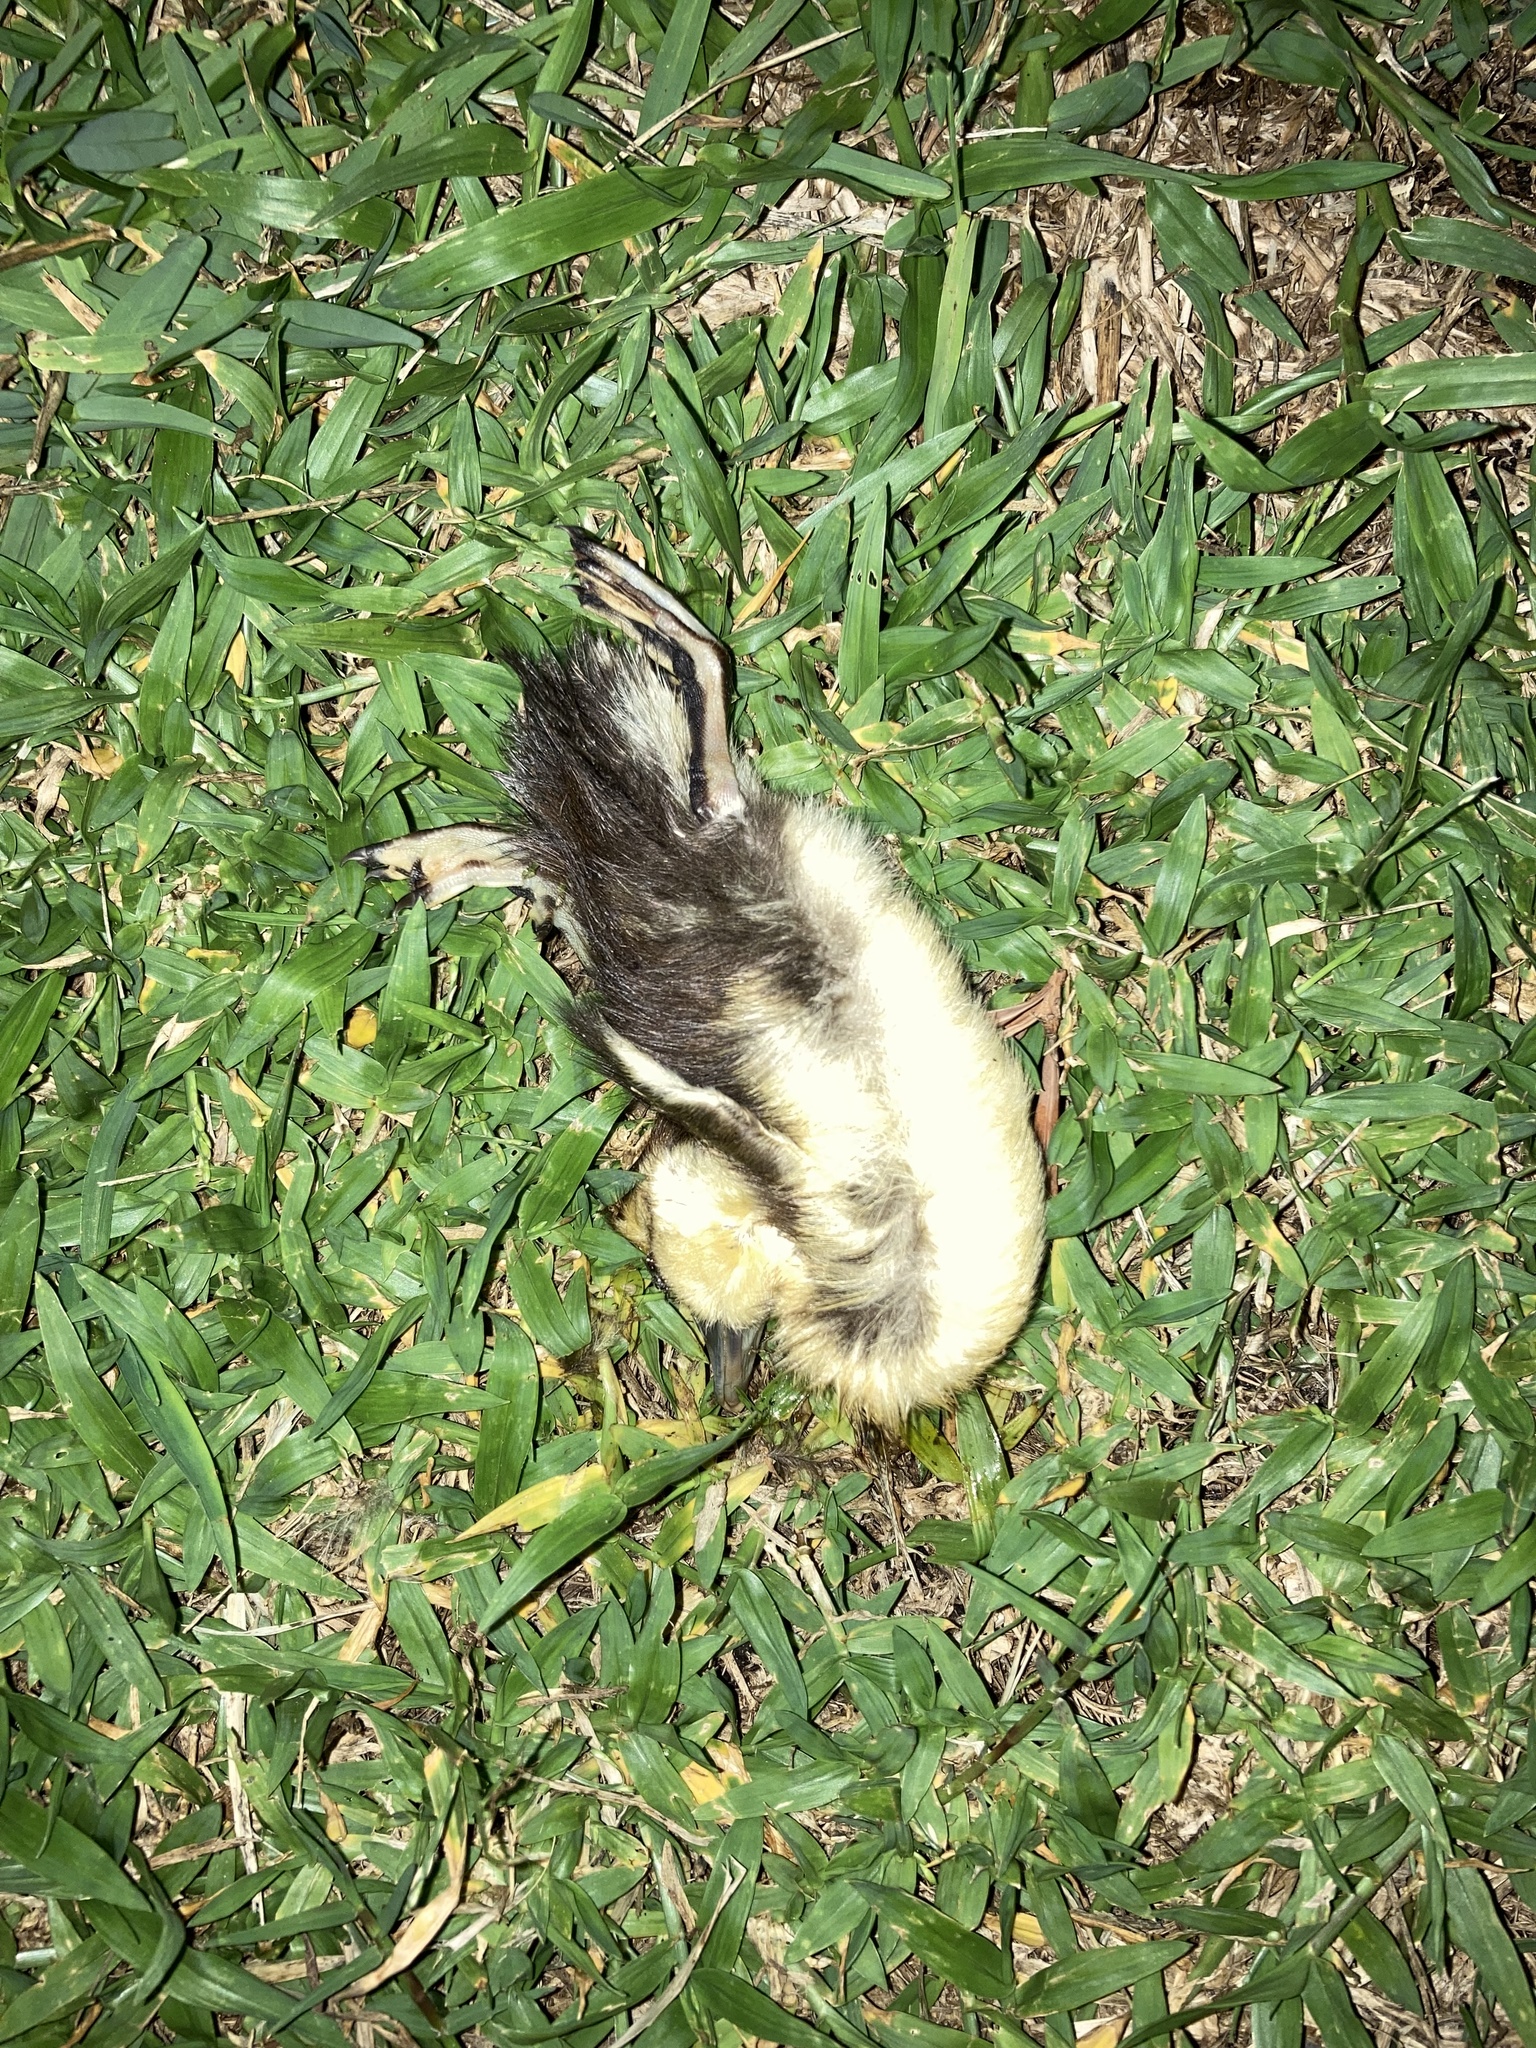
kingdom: Animalia
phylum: Chordata
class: Aves
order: Anseriformes
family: Anatidae
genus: Cairina
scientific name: Cairina moschata
